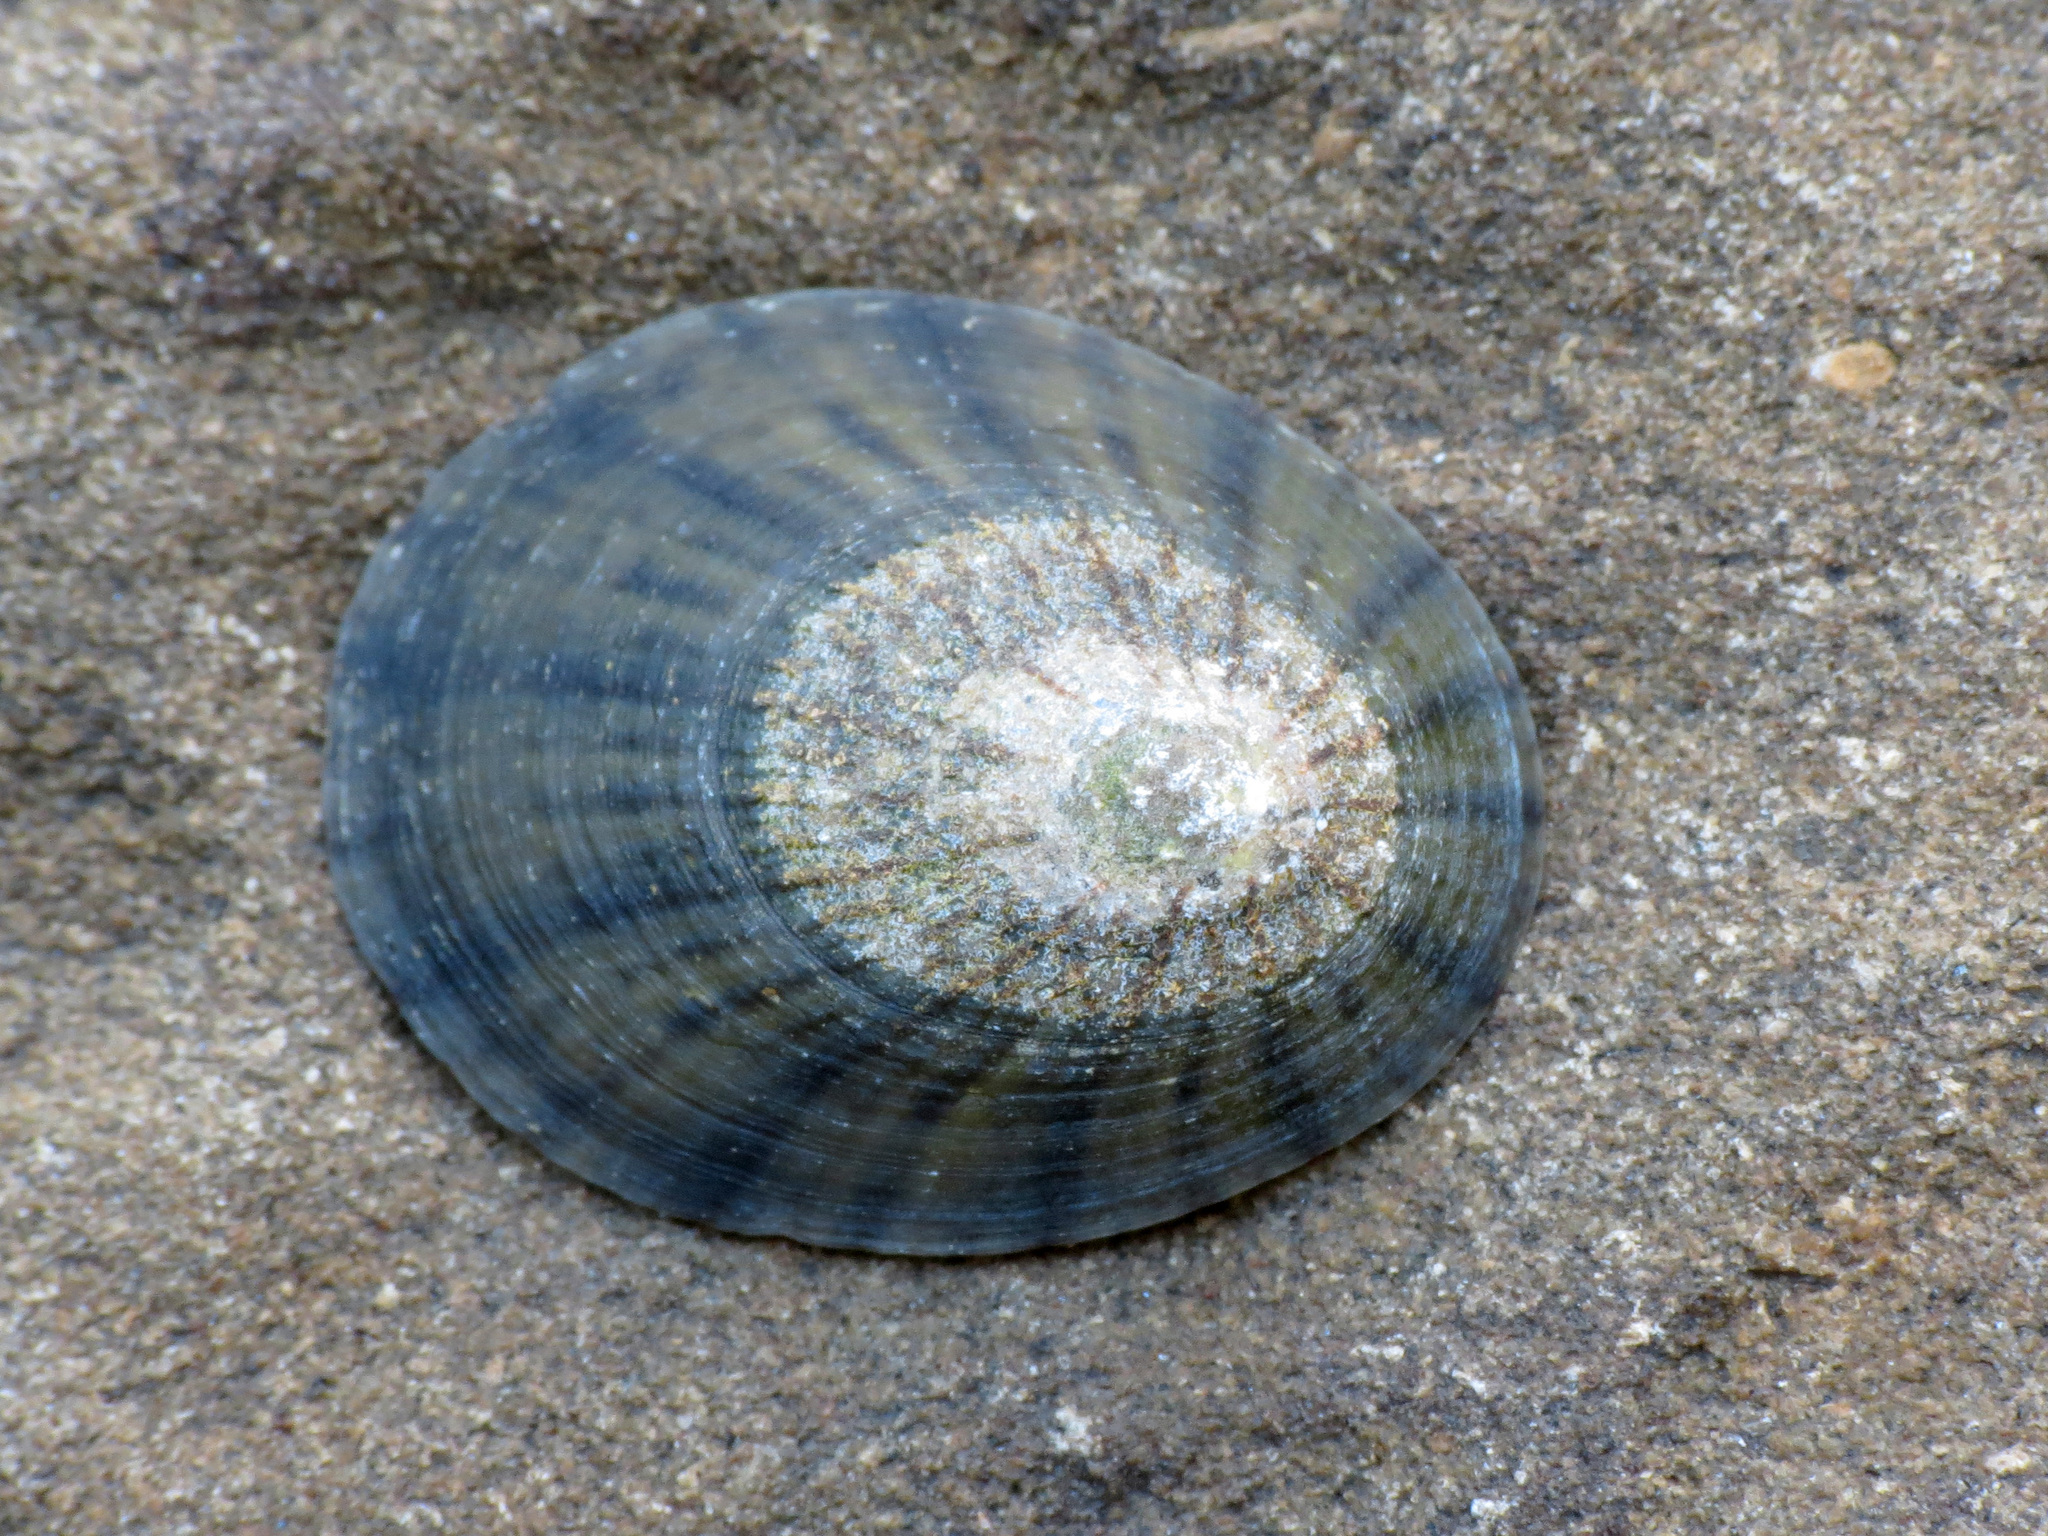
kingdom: Animalia
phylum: Mollusca
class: Gastropoda
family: Nacellidae
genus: Cellana
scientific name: Cellana radians
